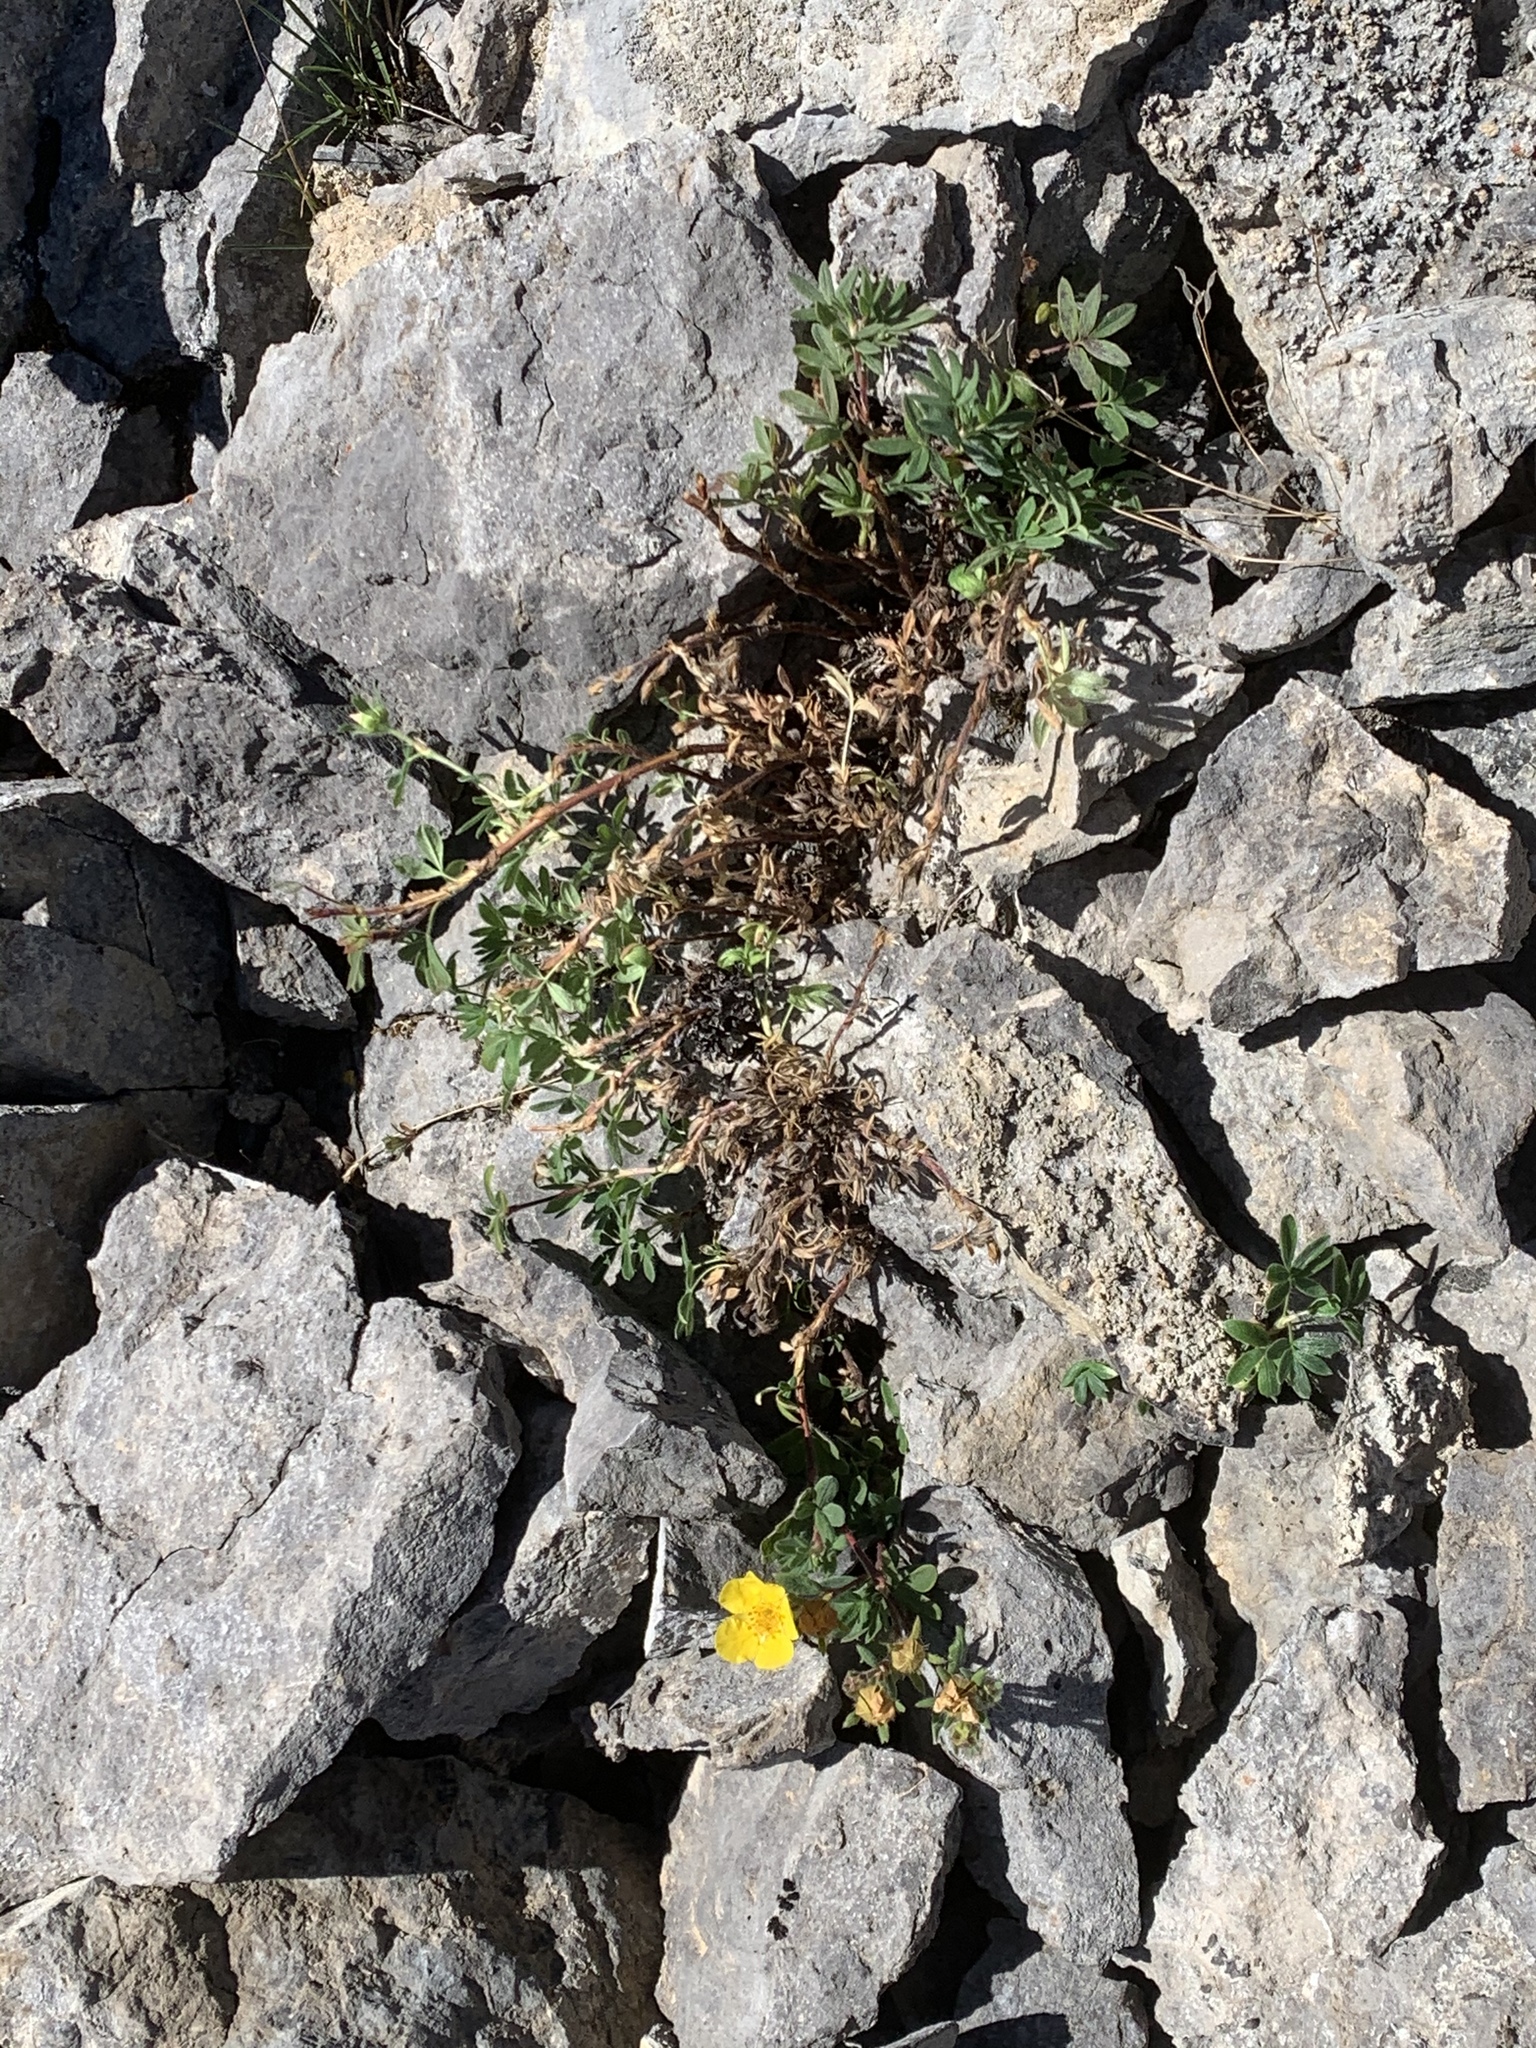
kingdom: Plantae
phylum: Tracheophyta
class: Magnoliopsida
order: Rosales
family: Rosaceae
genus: Dasiphora
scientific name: Dasiphora fruticosa
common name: Shrubby cinquefoil
